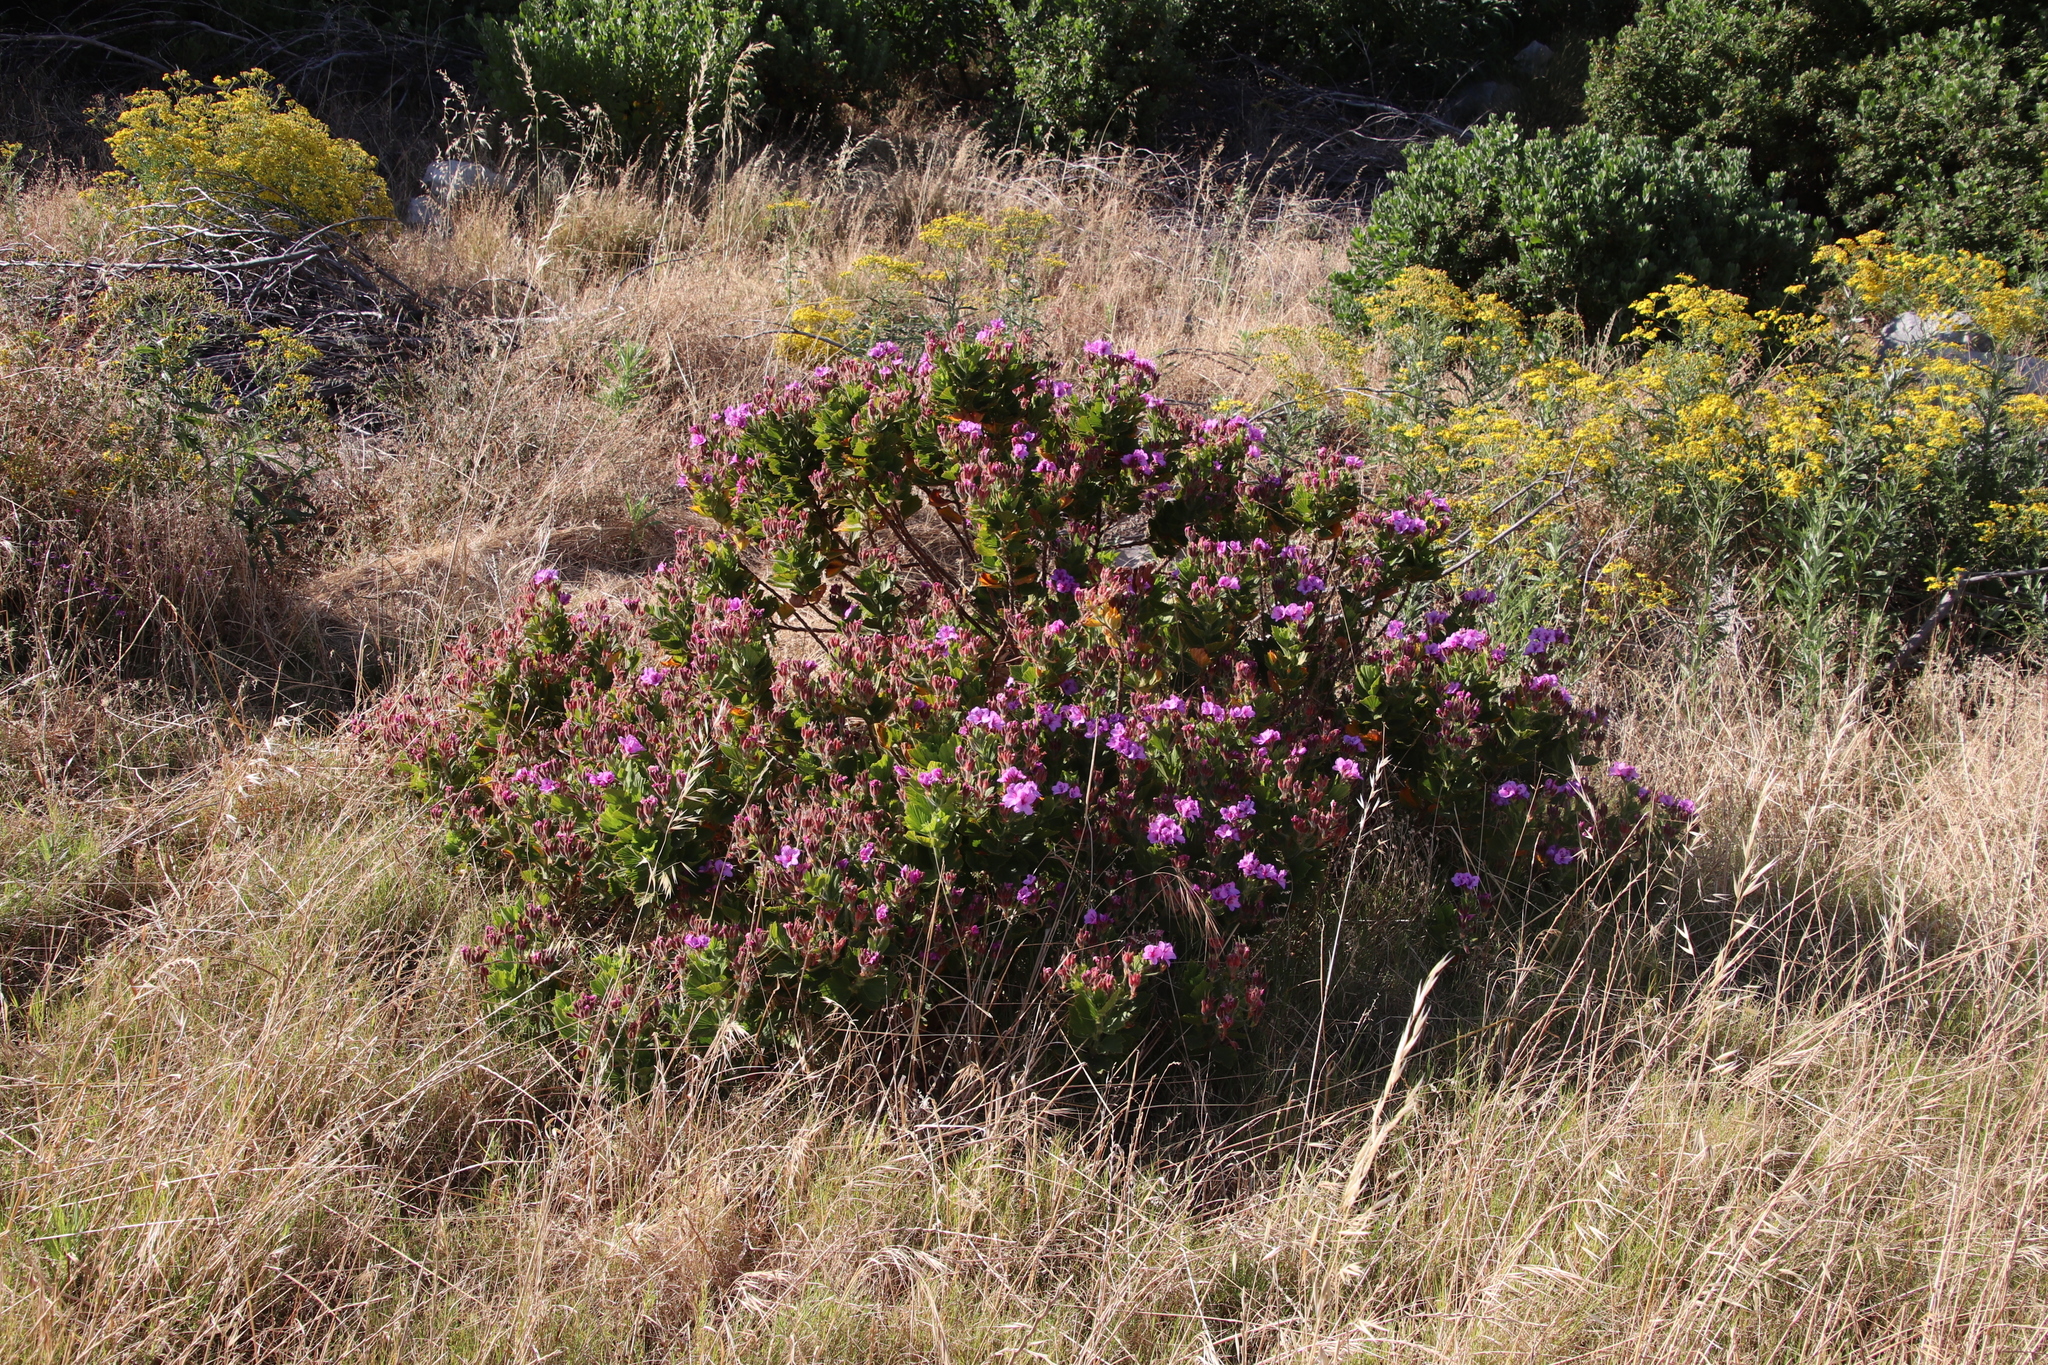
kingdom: Plantae
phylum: Tracheophyta
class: Magnoliopsida
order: Geraniales
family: Geraniaceae
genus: Pelargonium
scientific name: Pelargonium cucullatum
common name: Tree pelargonium
